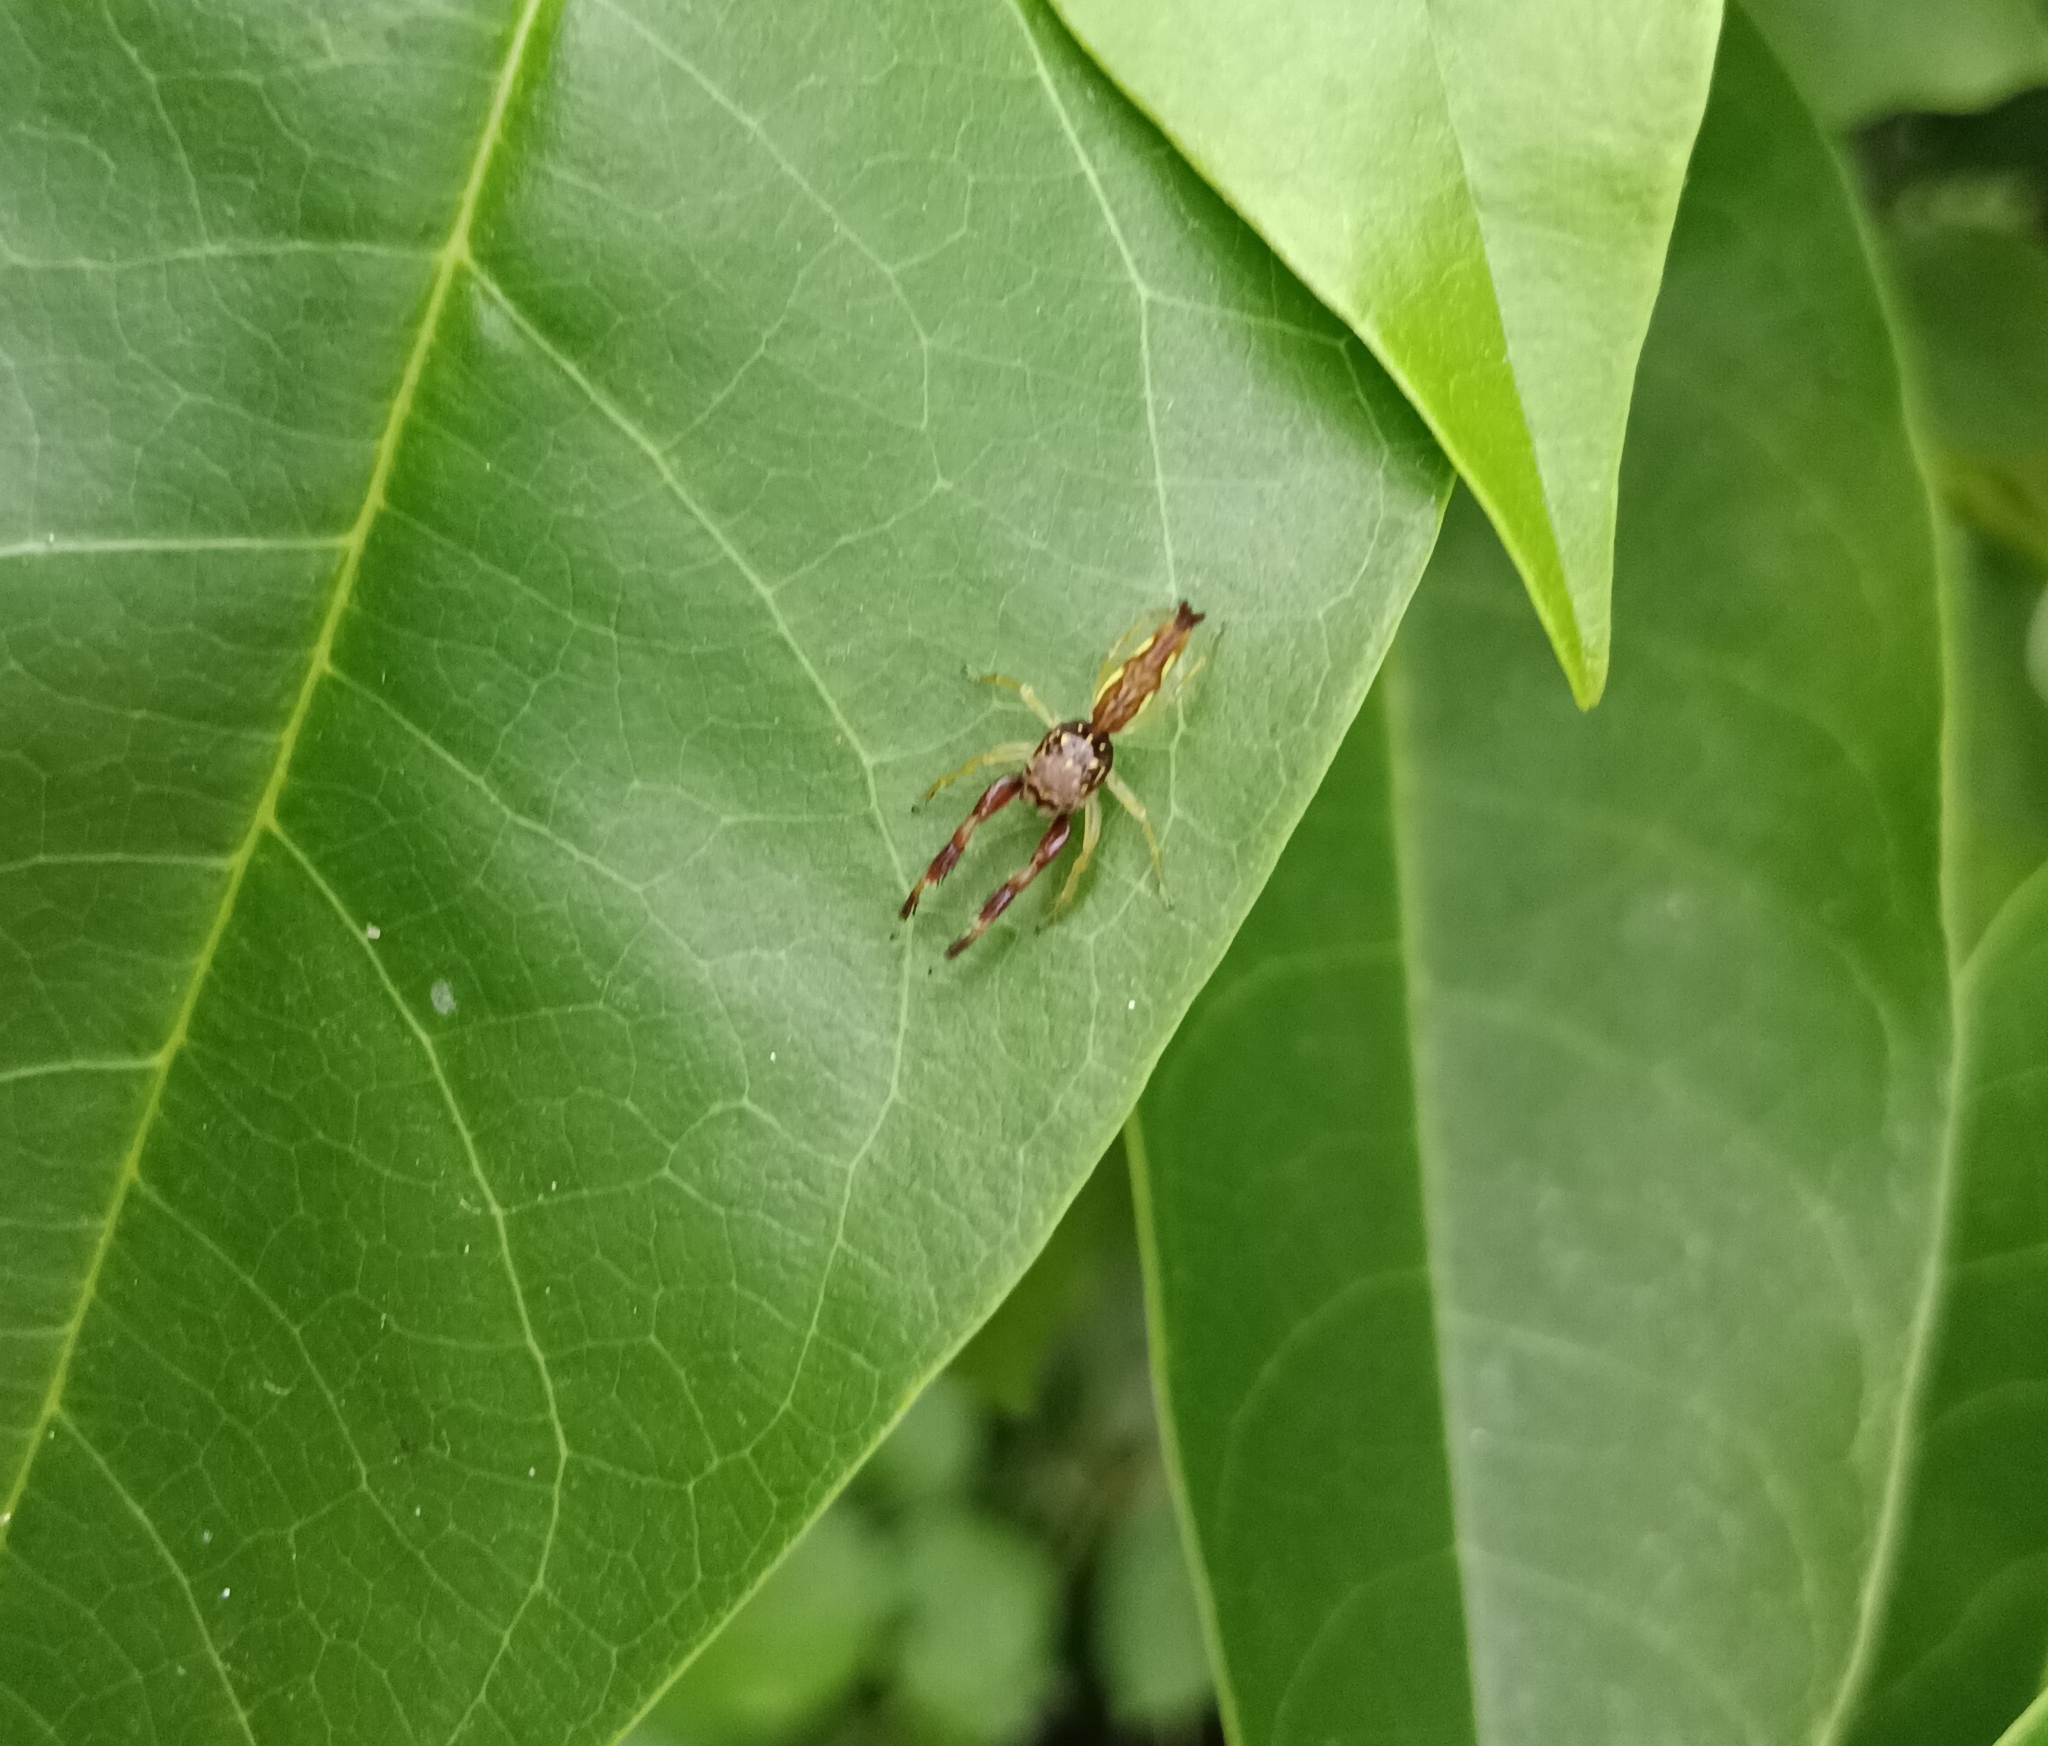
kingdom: Animalia
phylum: Arthropoda
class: Arachnida
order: Araneae
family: Salticidae
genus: Indopadilla
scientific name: Indopadilla insularis
